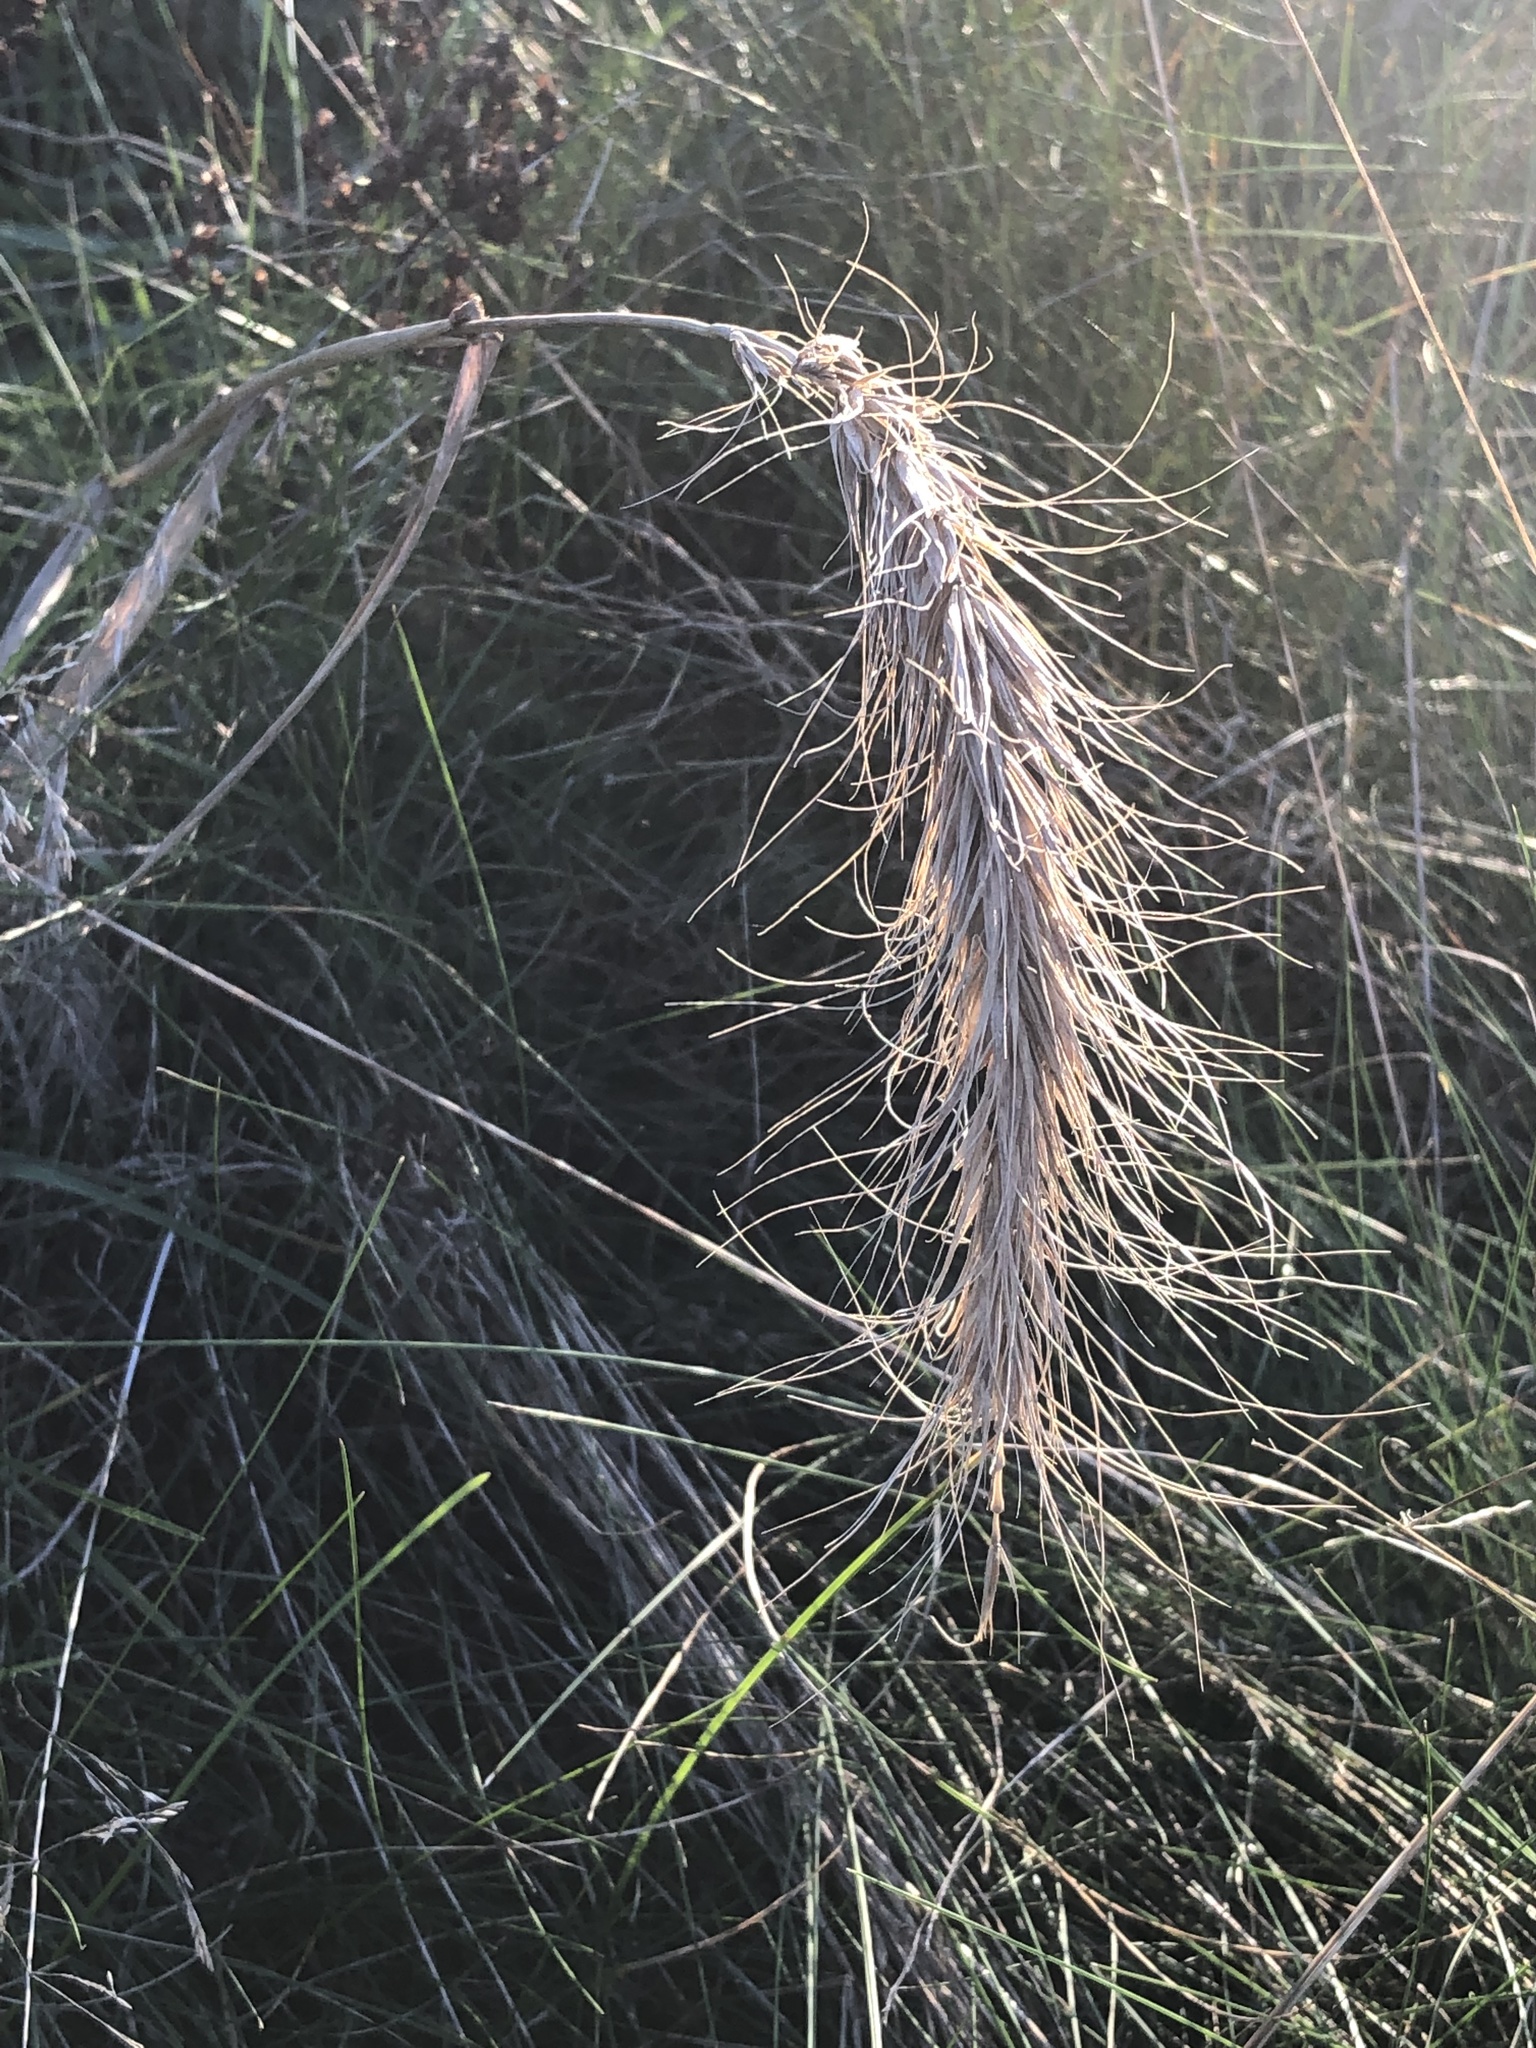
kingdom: Plantae
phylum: Tracheophyta
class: Liliopsida
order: Poales
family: Poaceae
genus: Elymus
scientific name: Elymus canadensis
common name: Canada wild rye
